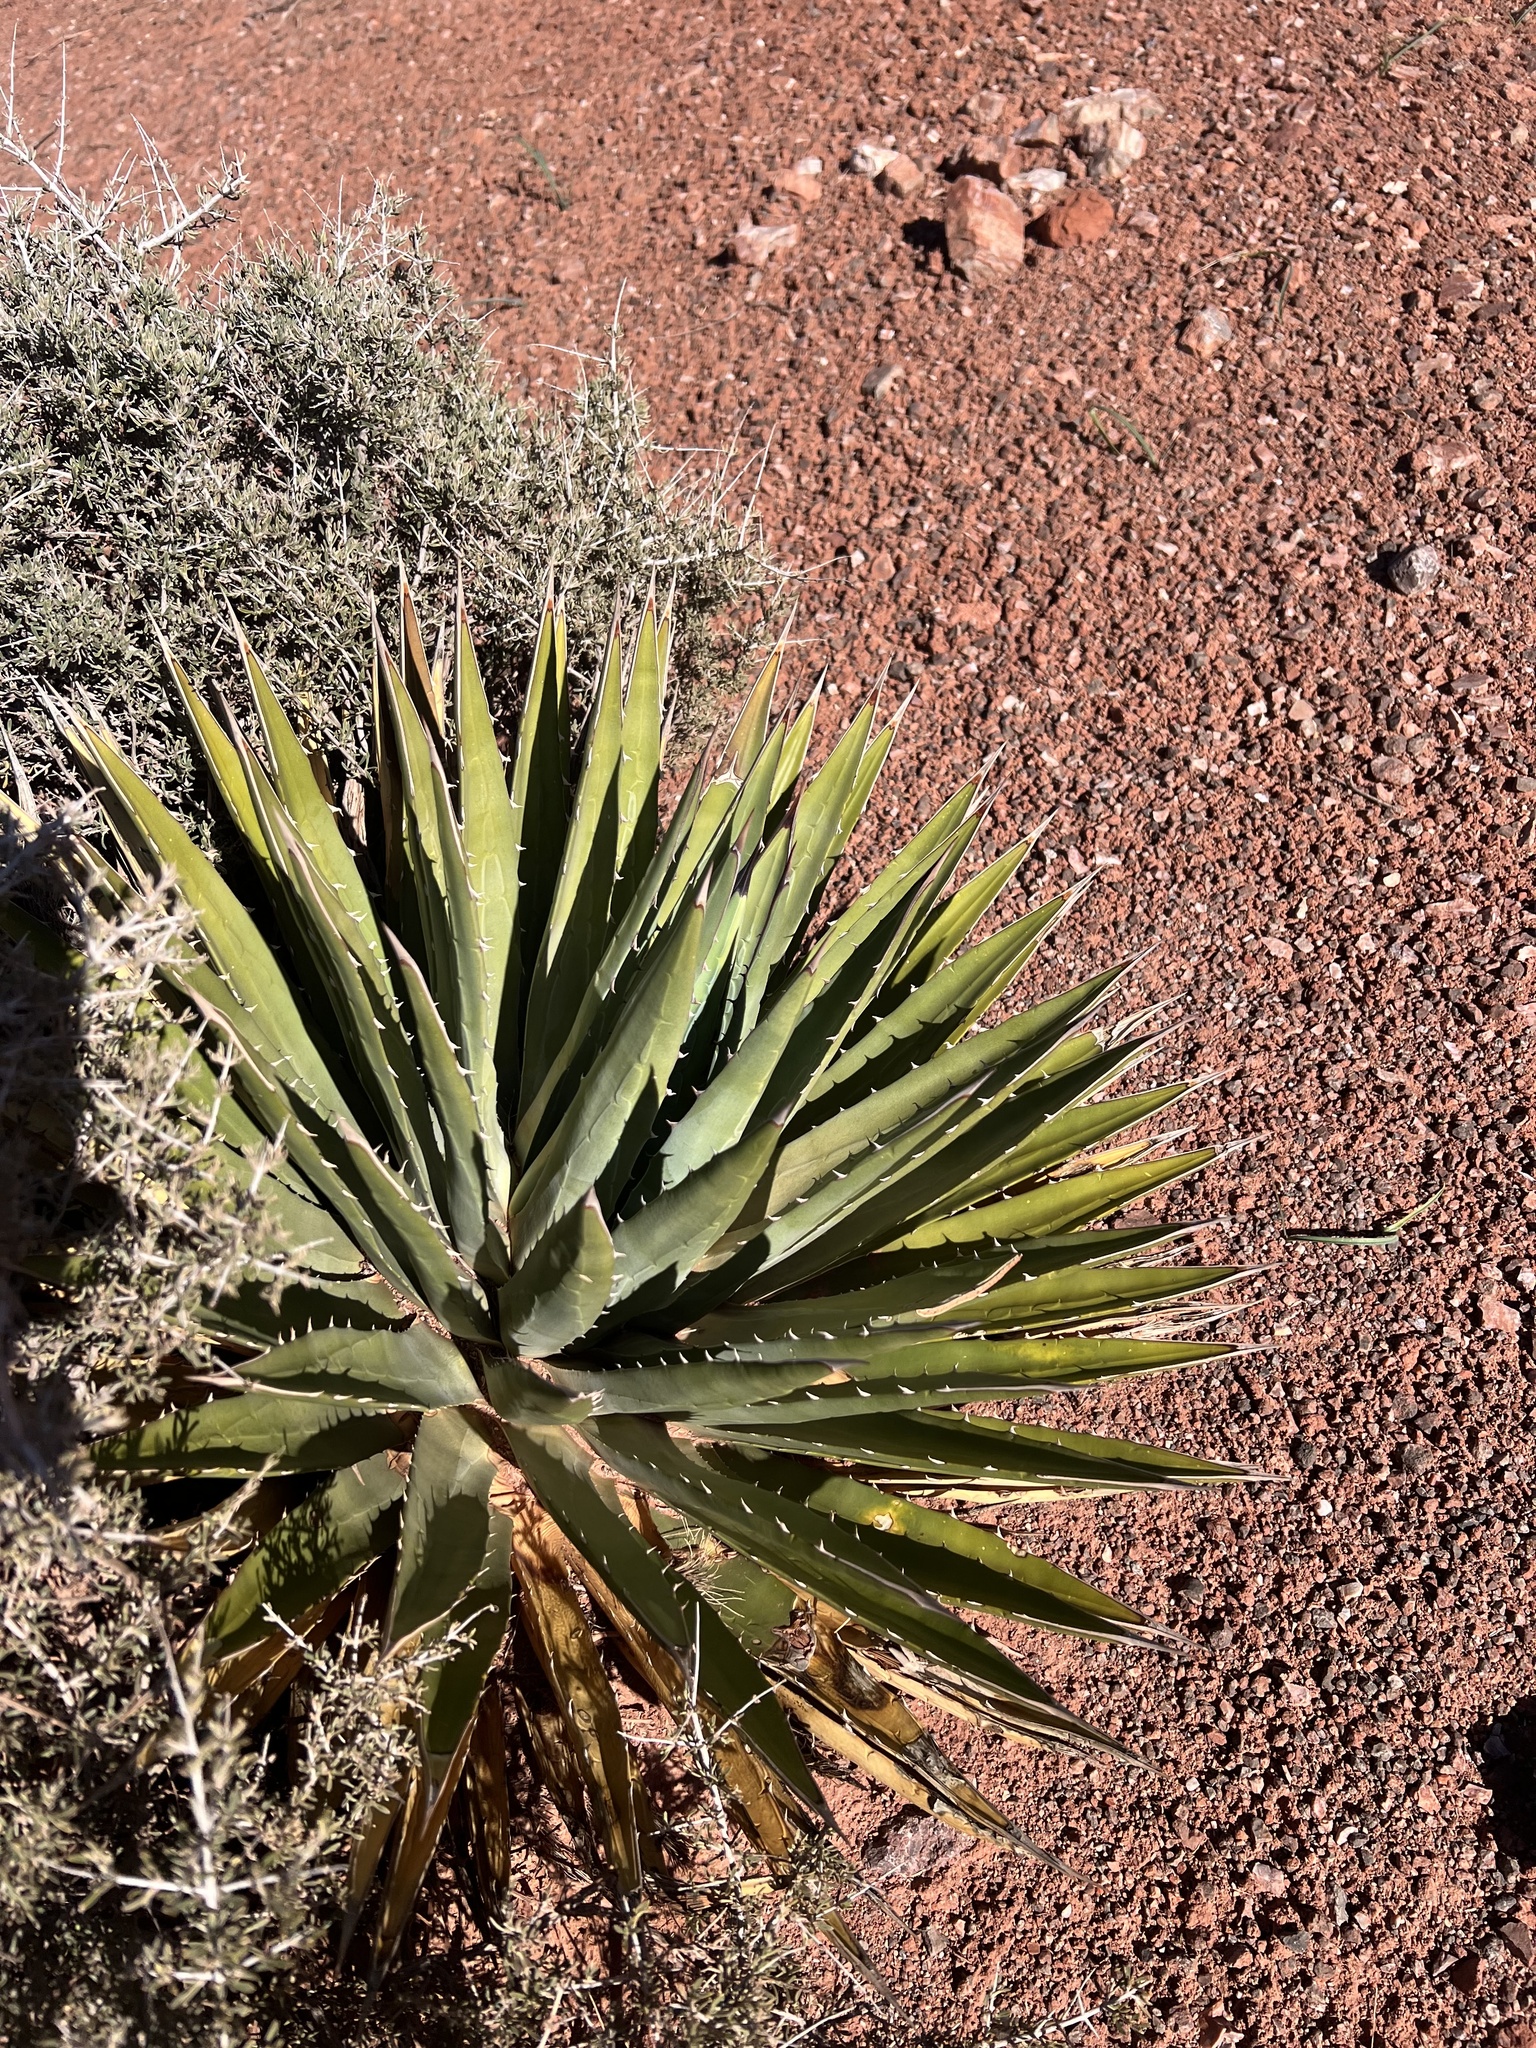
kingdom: Plantae
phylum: Tracheophyta
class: Liliopsida
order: Asparagales
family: Asparagaceae
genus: Agave
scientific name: Agave utahensis
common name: Utah agave
